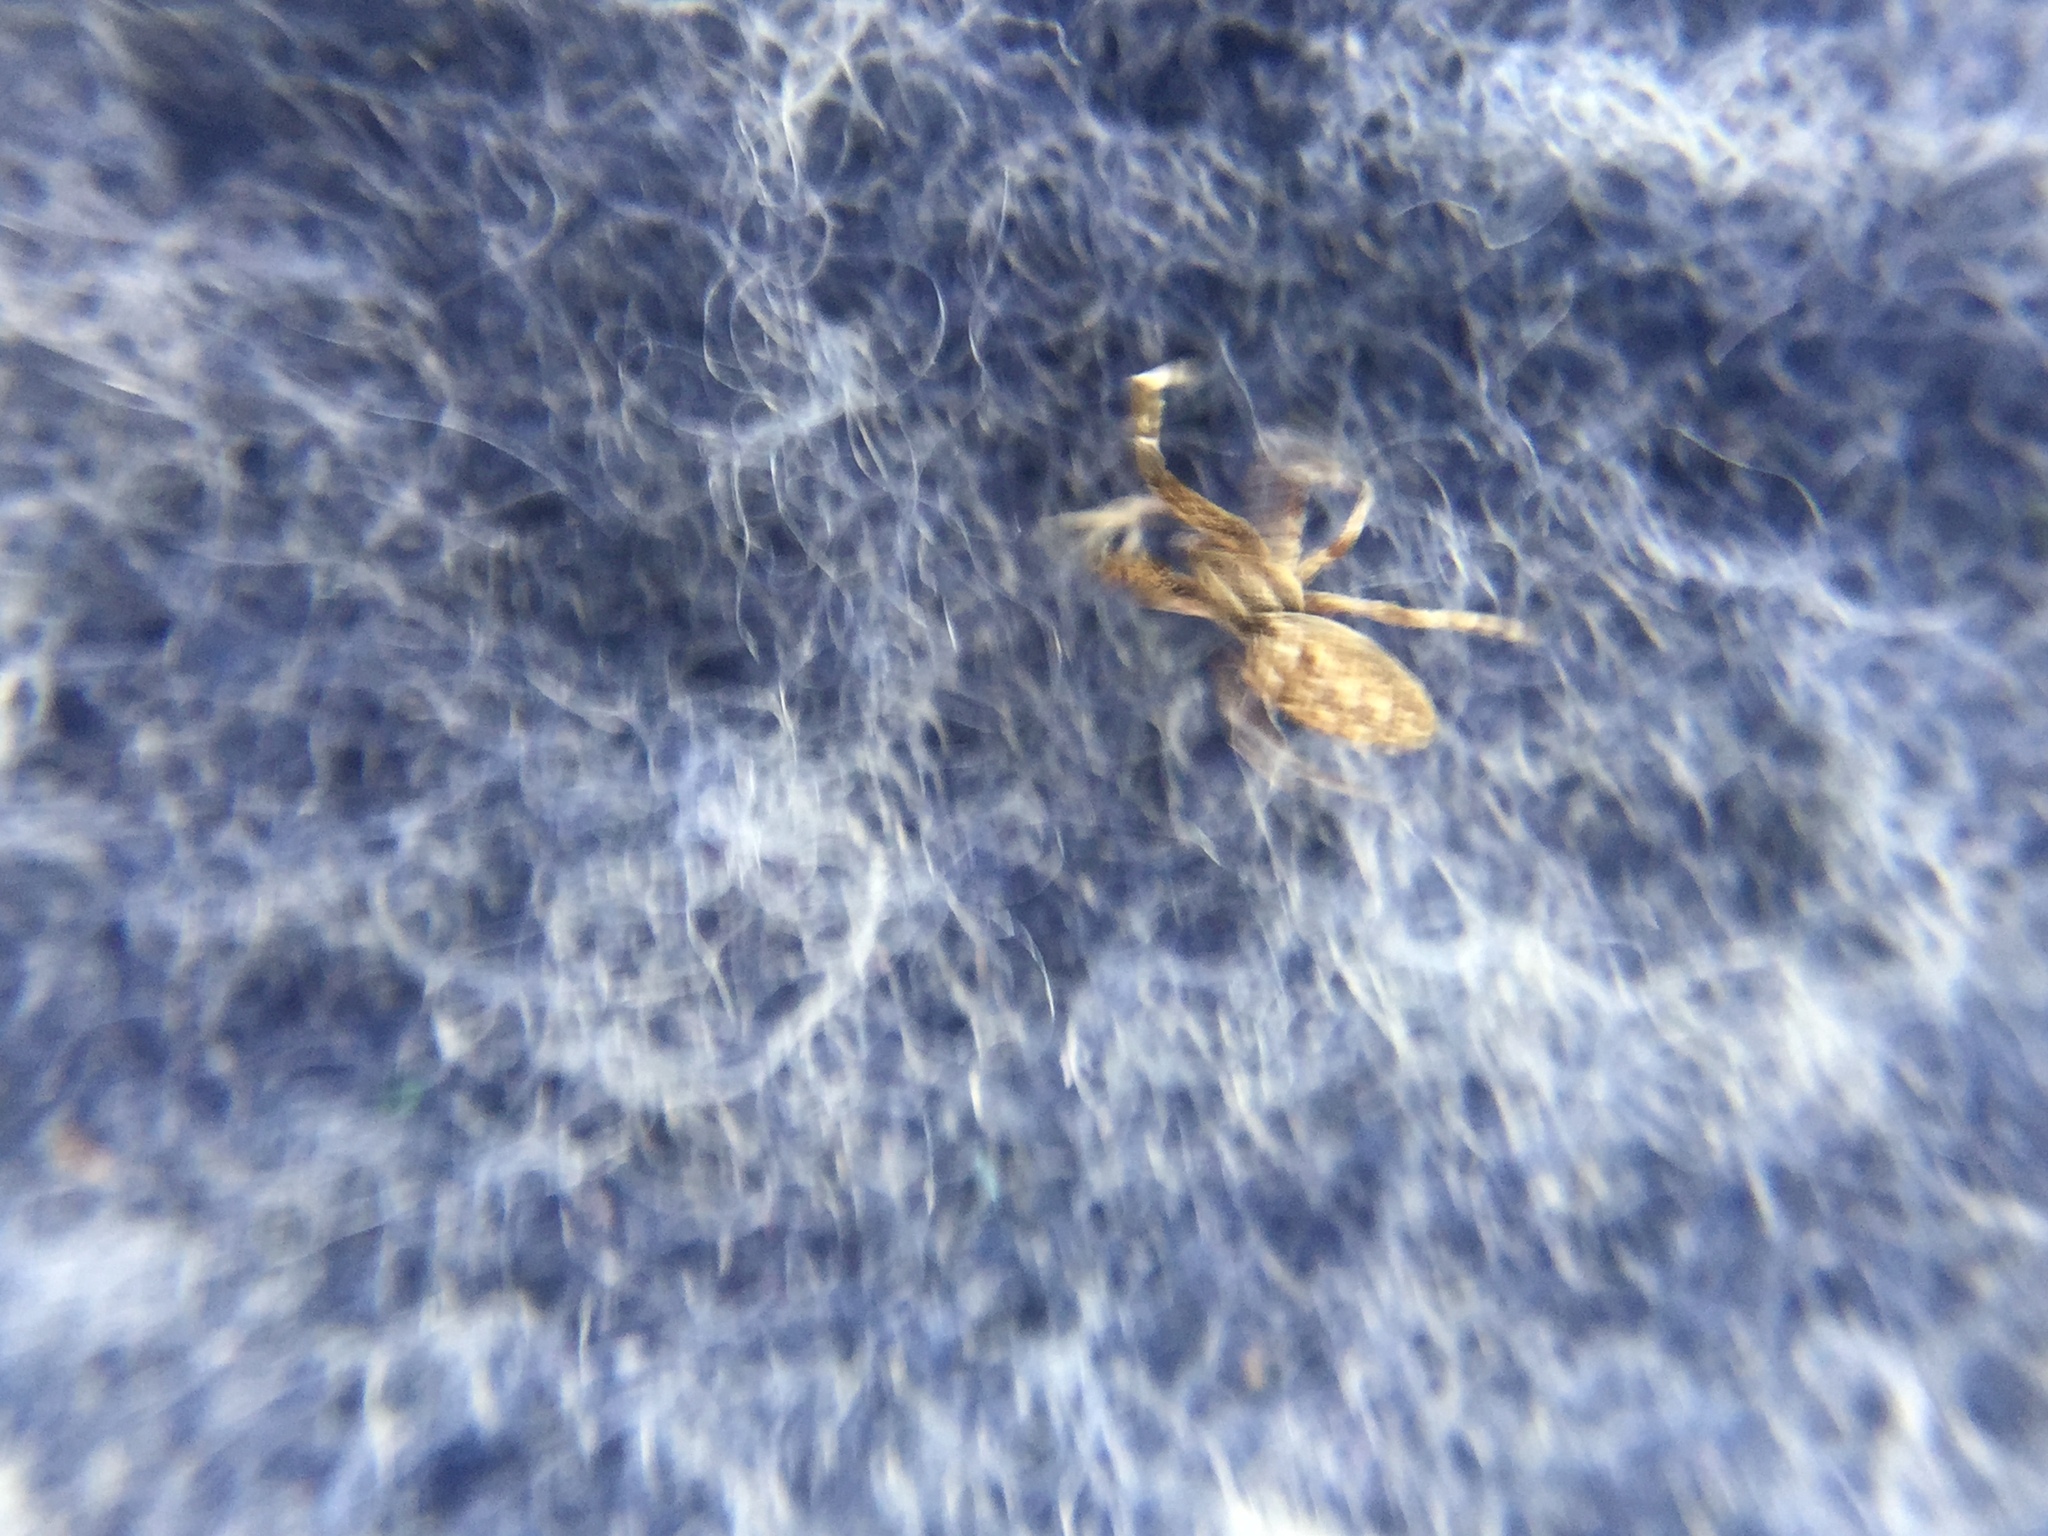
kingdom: Animalia
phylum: Arthropoda
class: Arachnida
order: Araneae
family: Uloboridae
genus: Uloborus
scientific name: Uloborus glomosus
